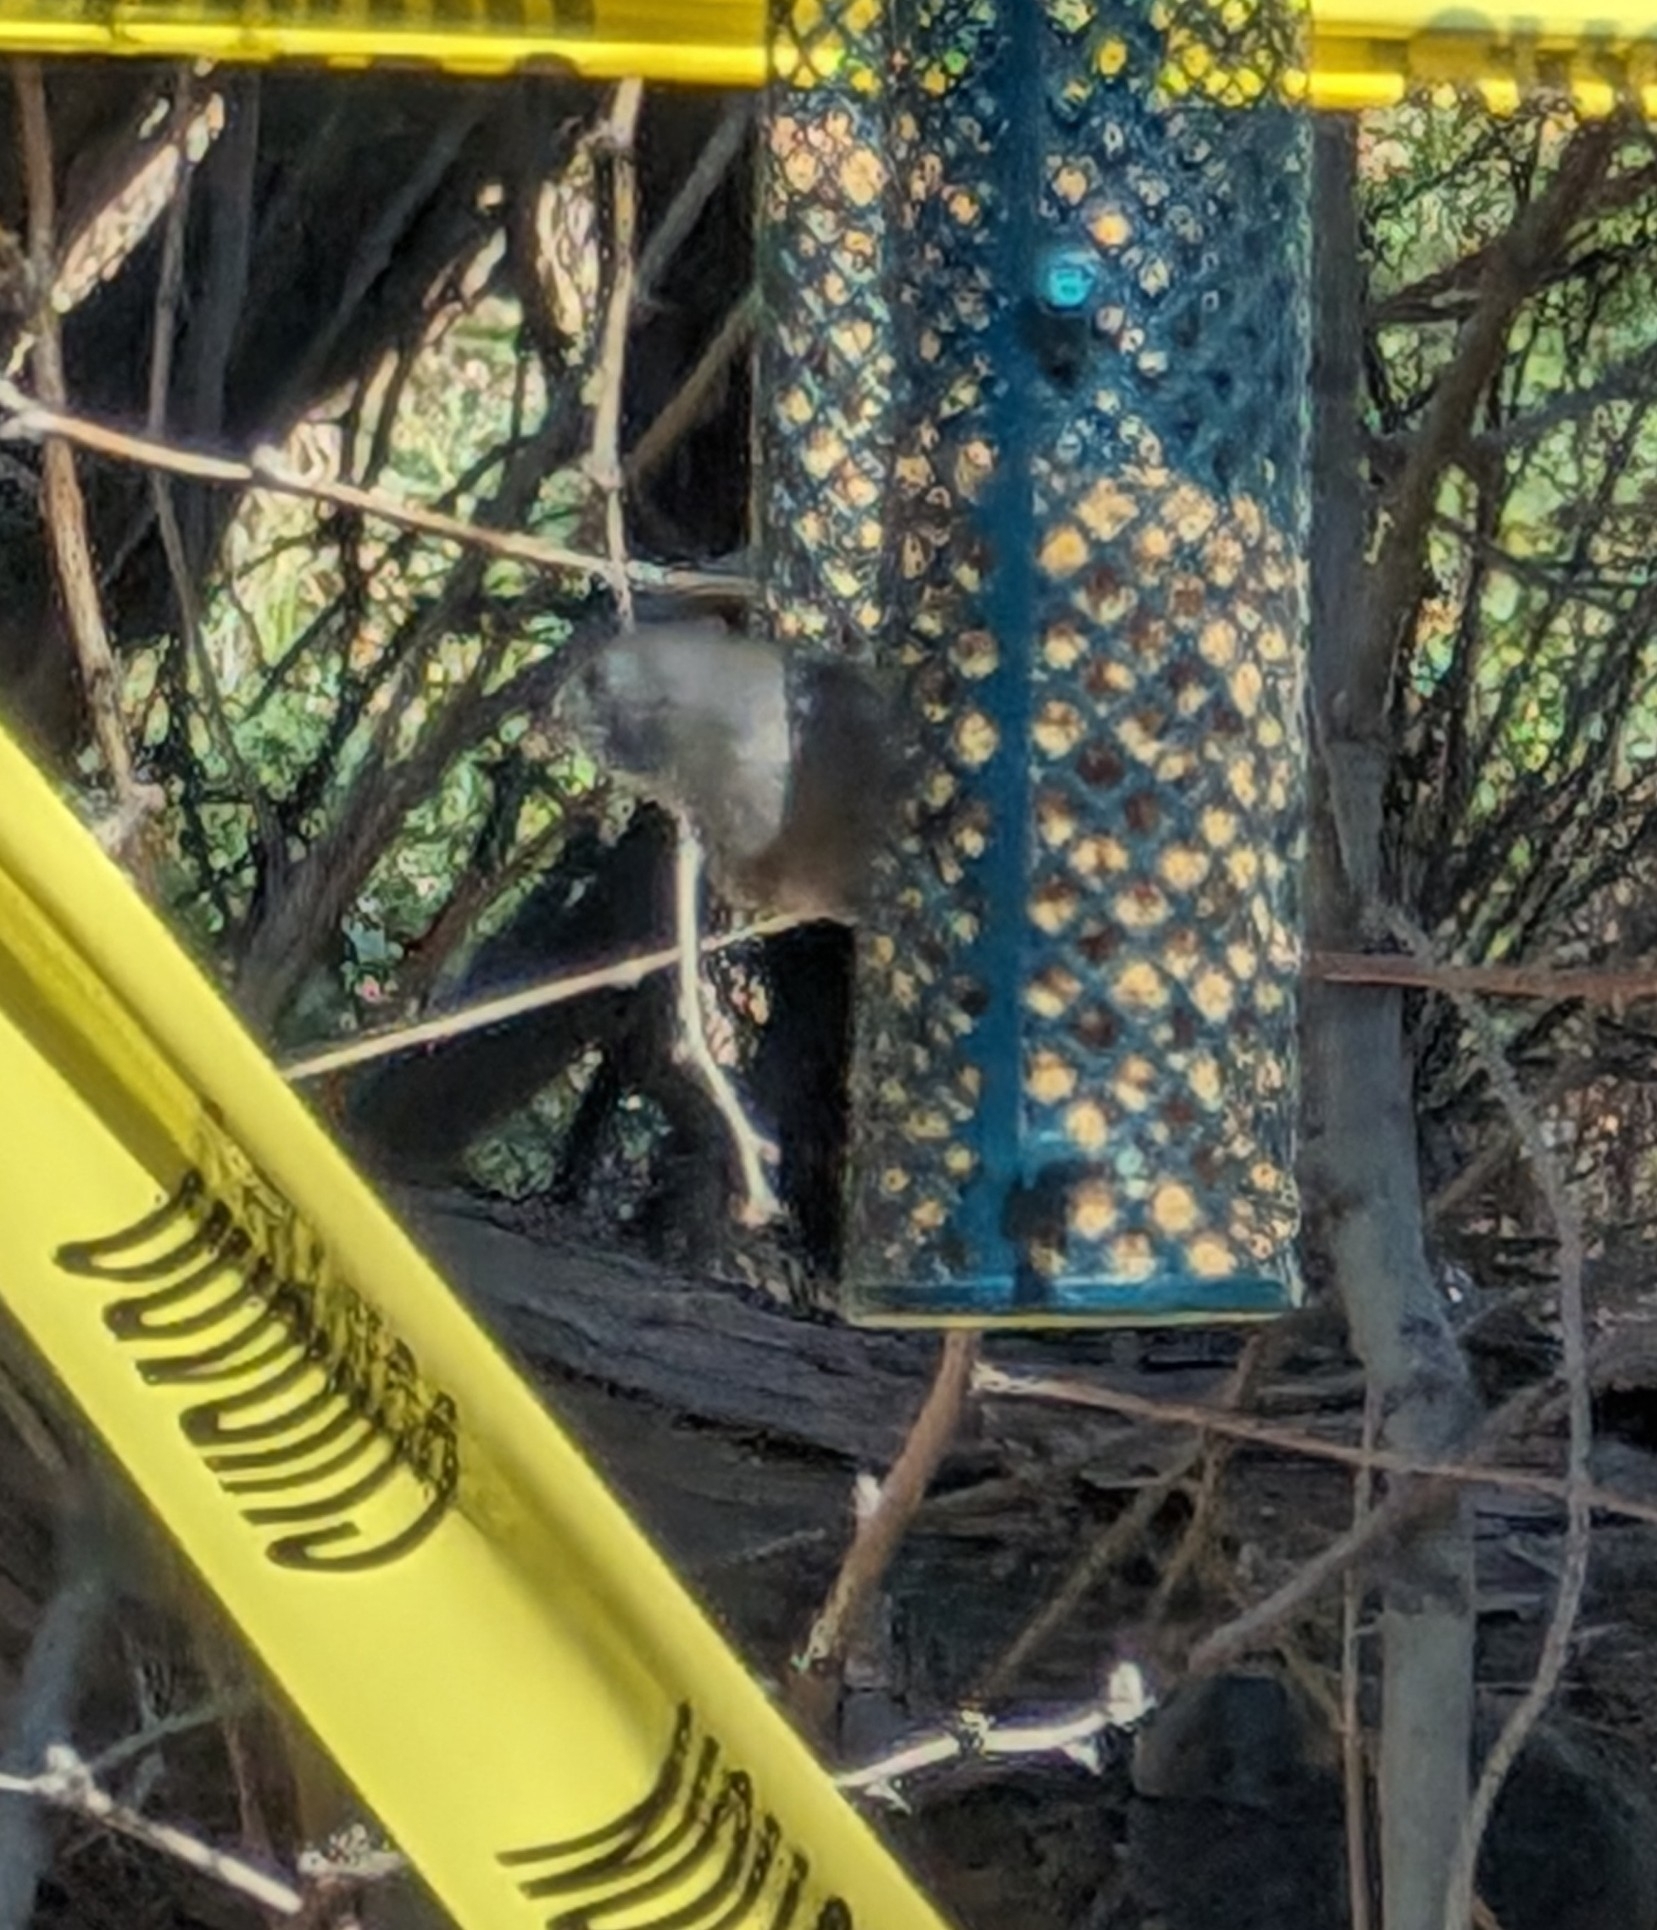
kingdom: Animalia
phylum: Chordata
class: Aves
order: Passeriformes
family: Paridae
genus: Baeolophus
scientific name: Baeolophus inornatus
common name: Oak titmouse
